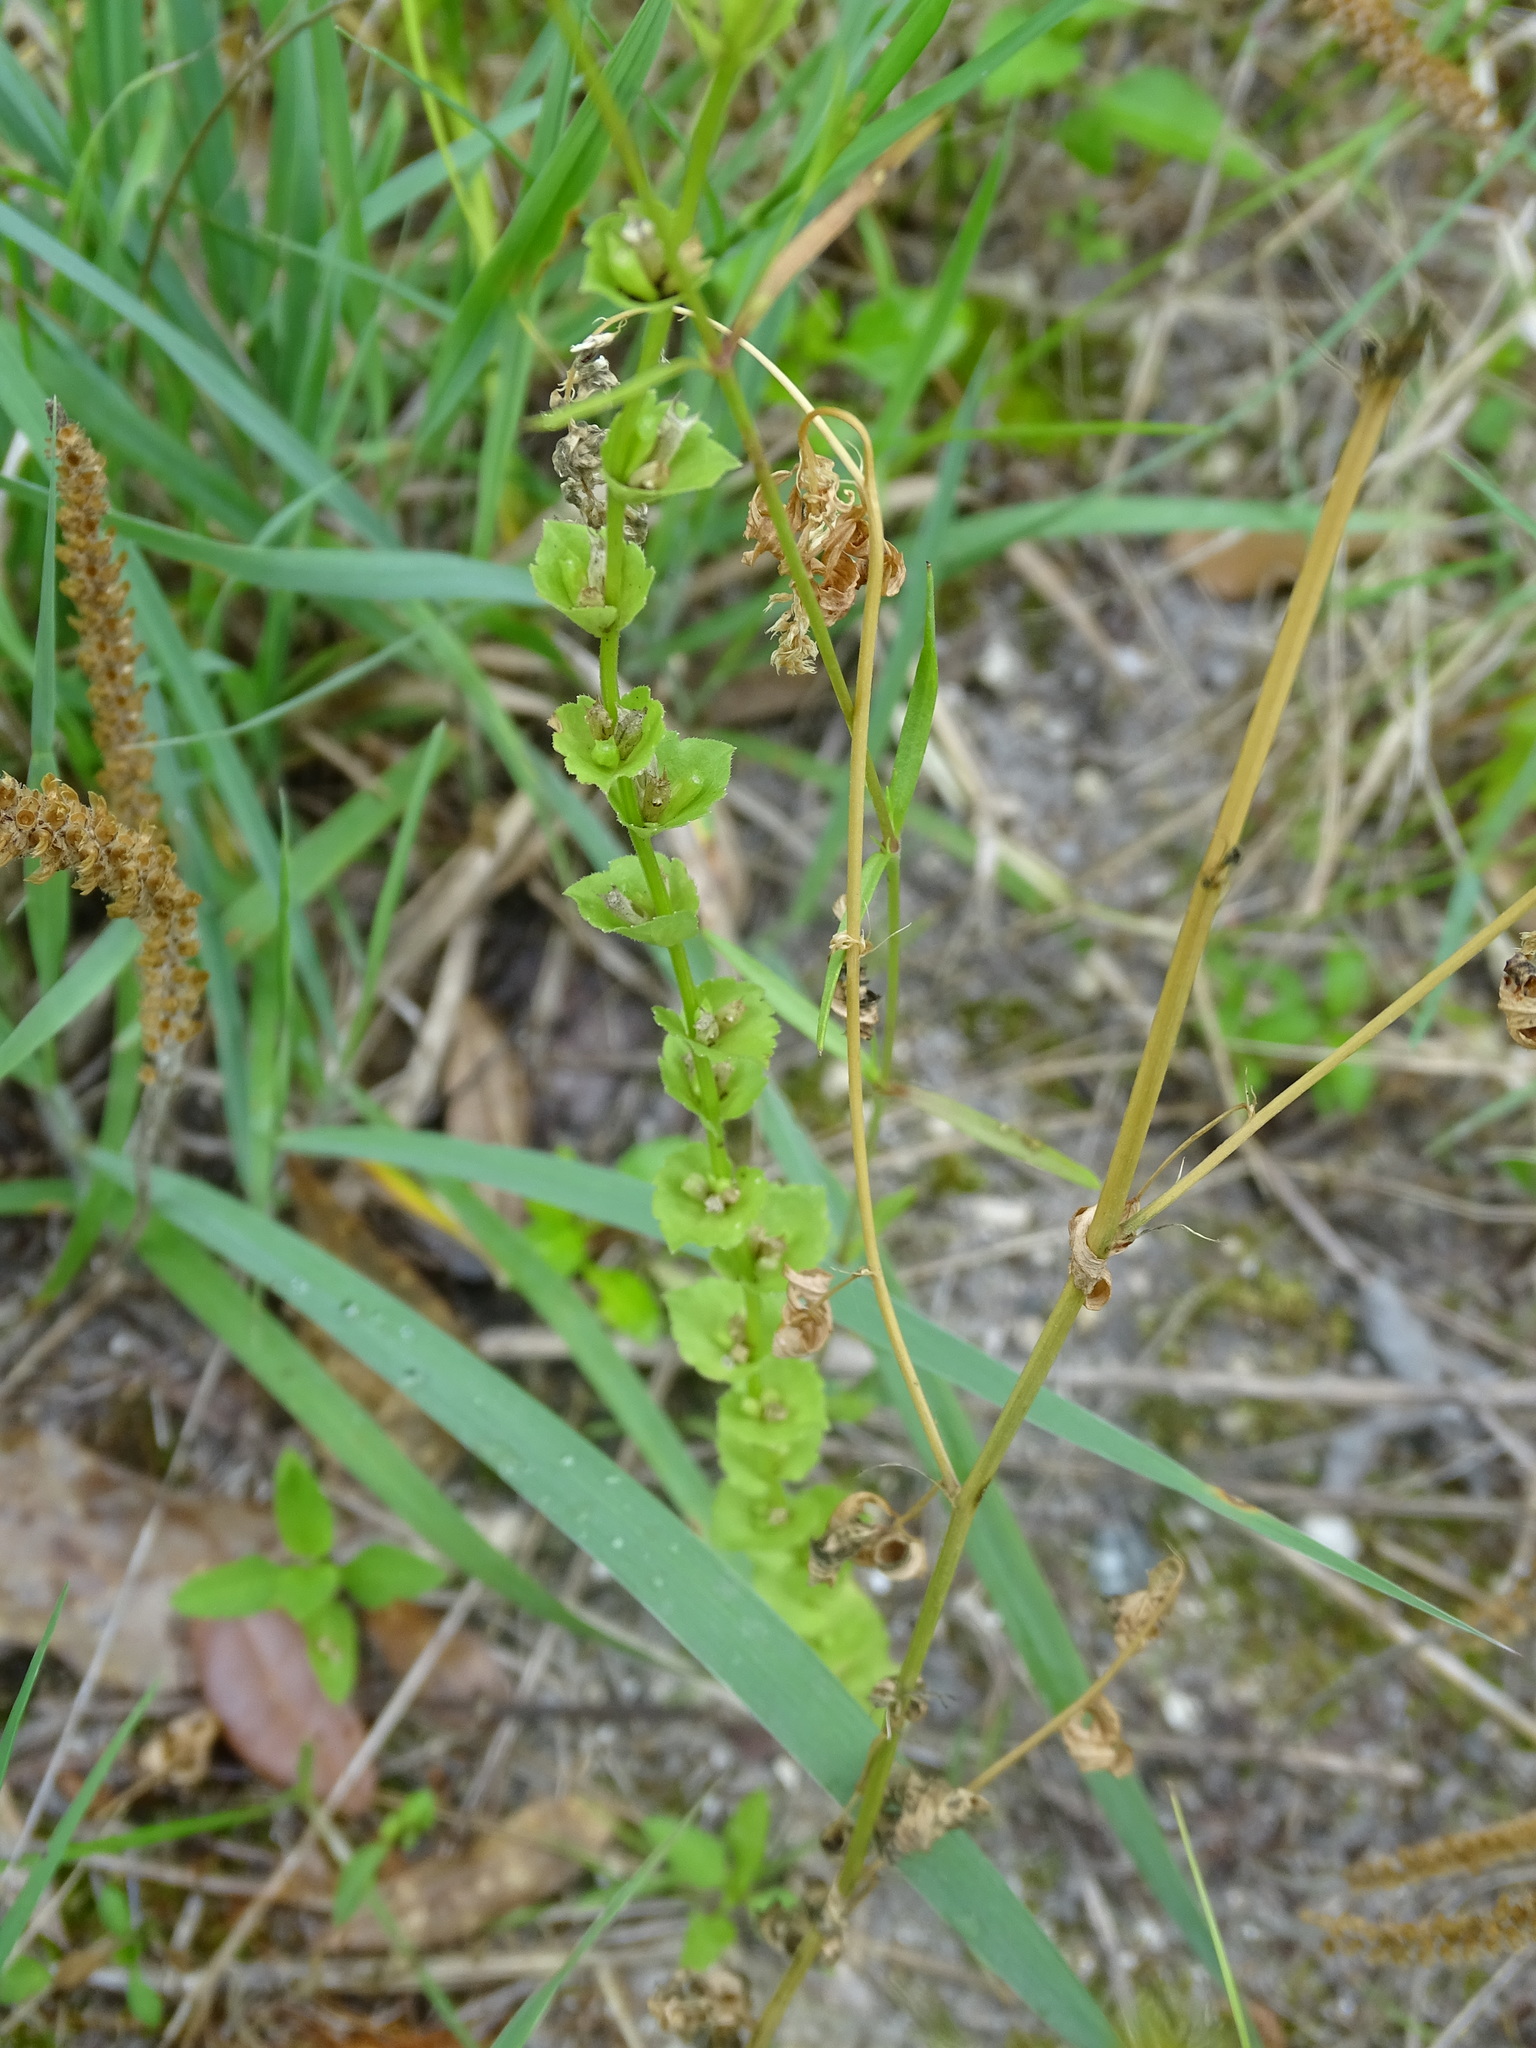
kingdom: Plantae
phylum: Tracheophyta
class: Magnoliopsida
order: Asterales
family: Campanulaceae
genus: Triodanis
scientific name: Triodanis perfoliata
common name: Clasping venus' looking-glass
